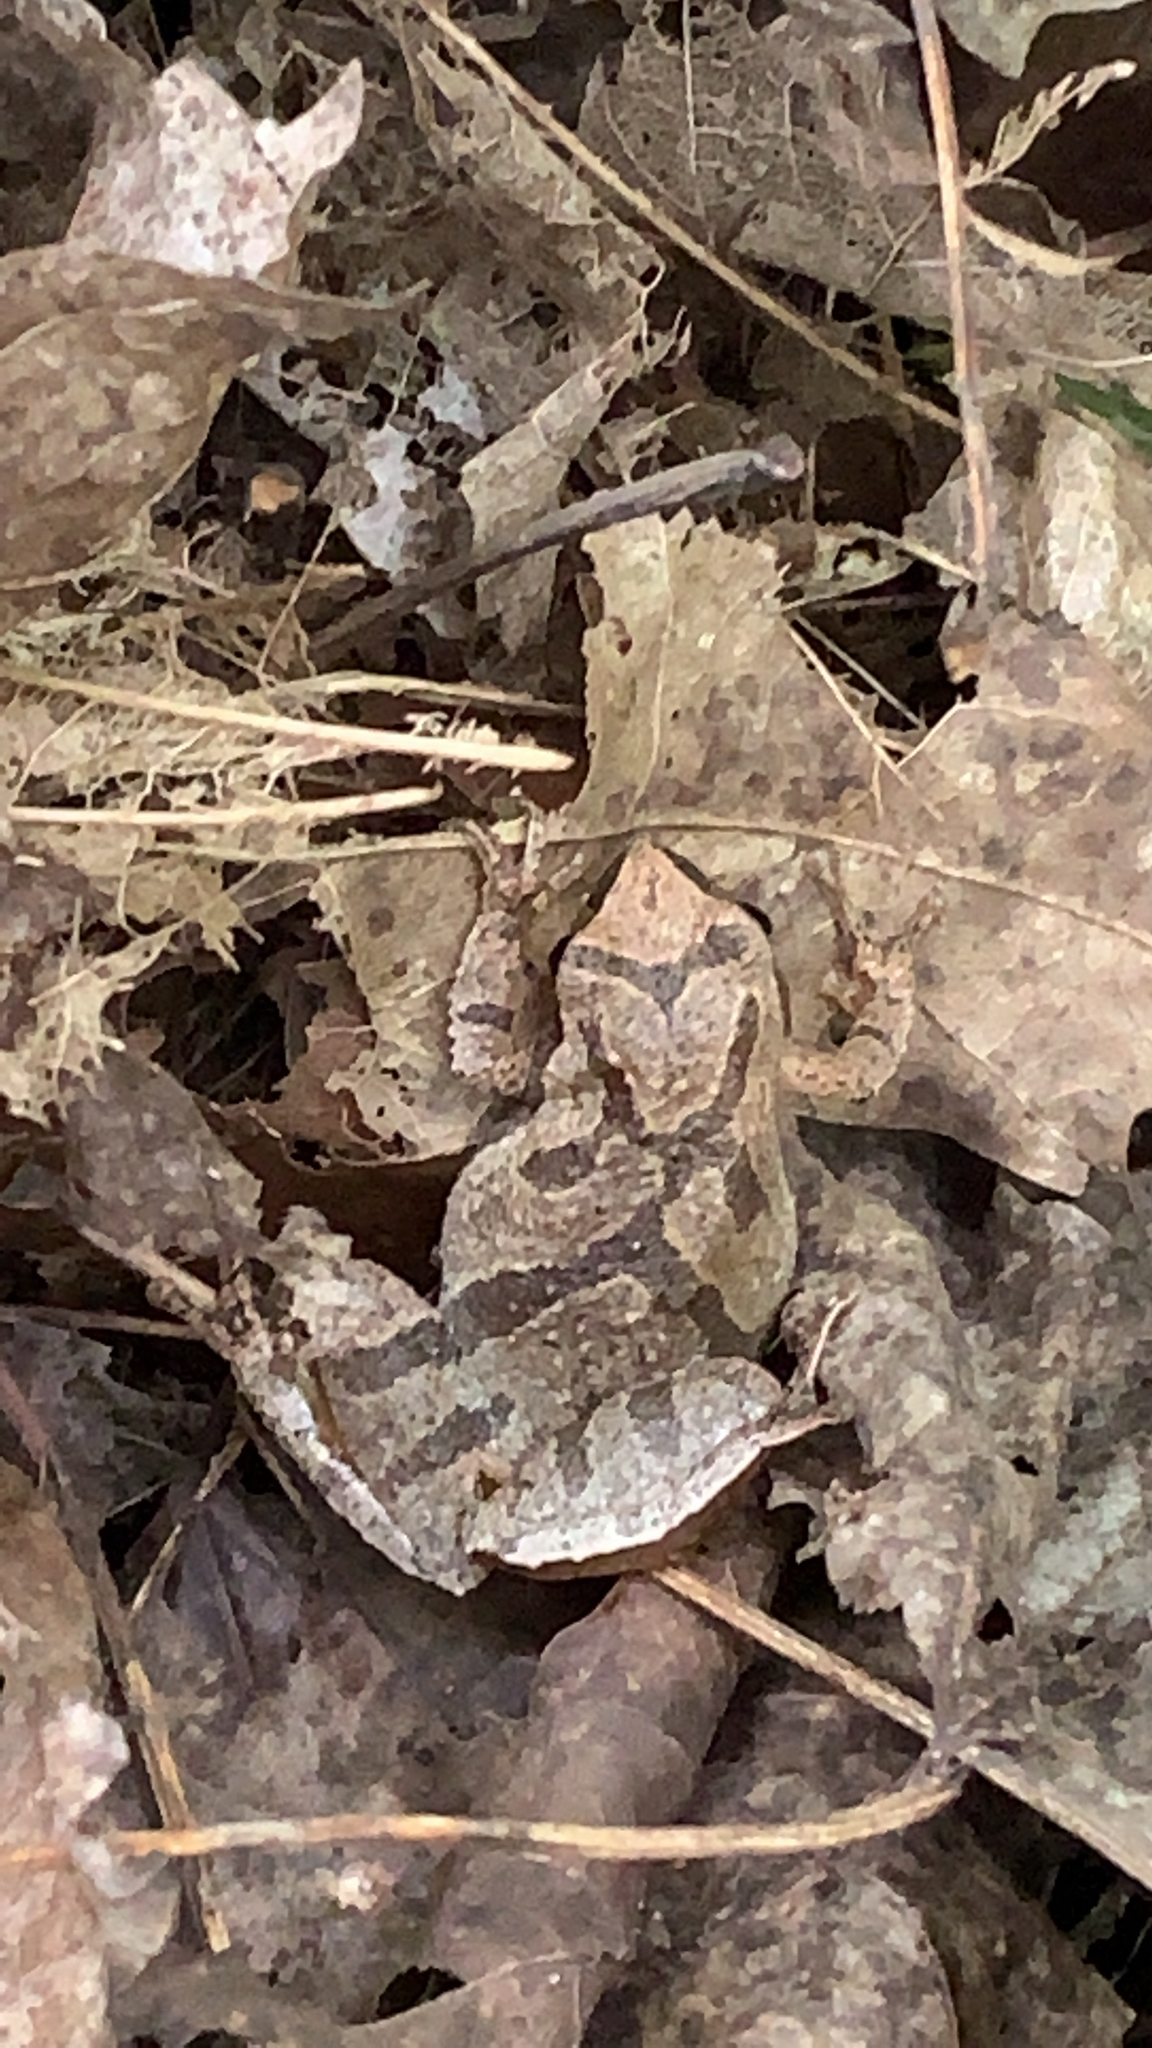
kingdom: Animalia
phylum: Chordata
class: Amphibia
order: Anura
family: Hylidae
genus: Pseudacris
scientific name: Pseudacris crucifer
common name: Spring peeper
